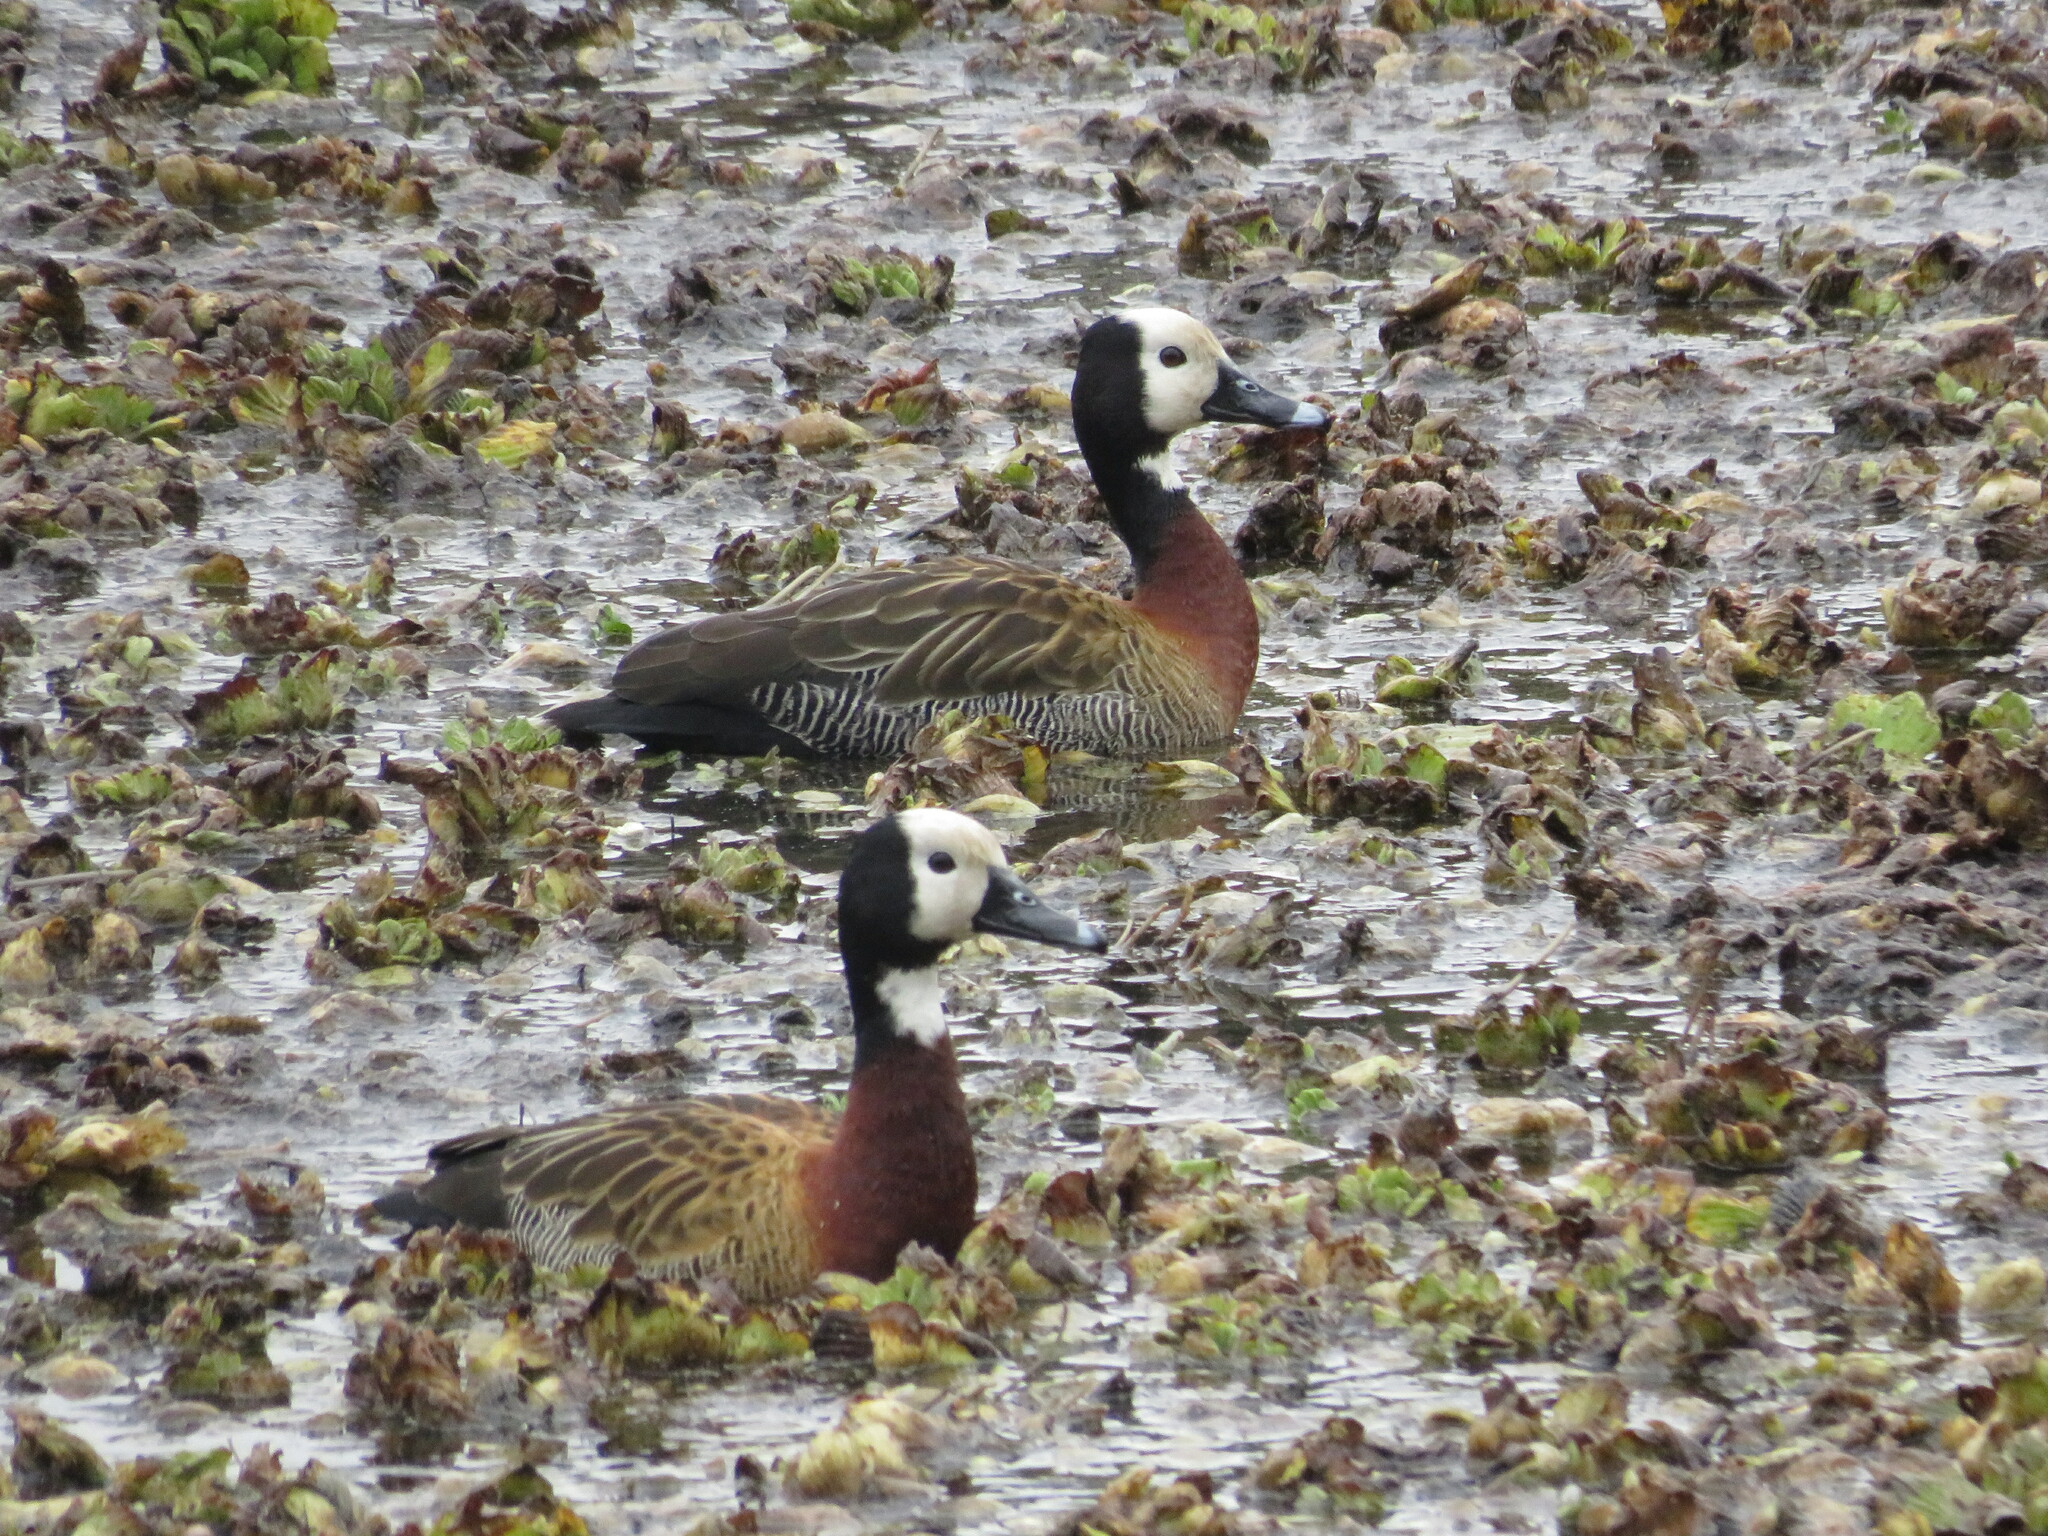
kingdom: Animalia
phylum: Chordata
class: Aves
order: Anseriformes
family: Anatidae
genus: Dendrocygna
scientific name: Dendrocygna viduata
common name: White-faced whistling duck
